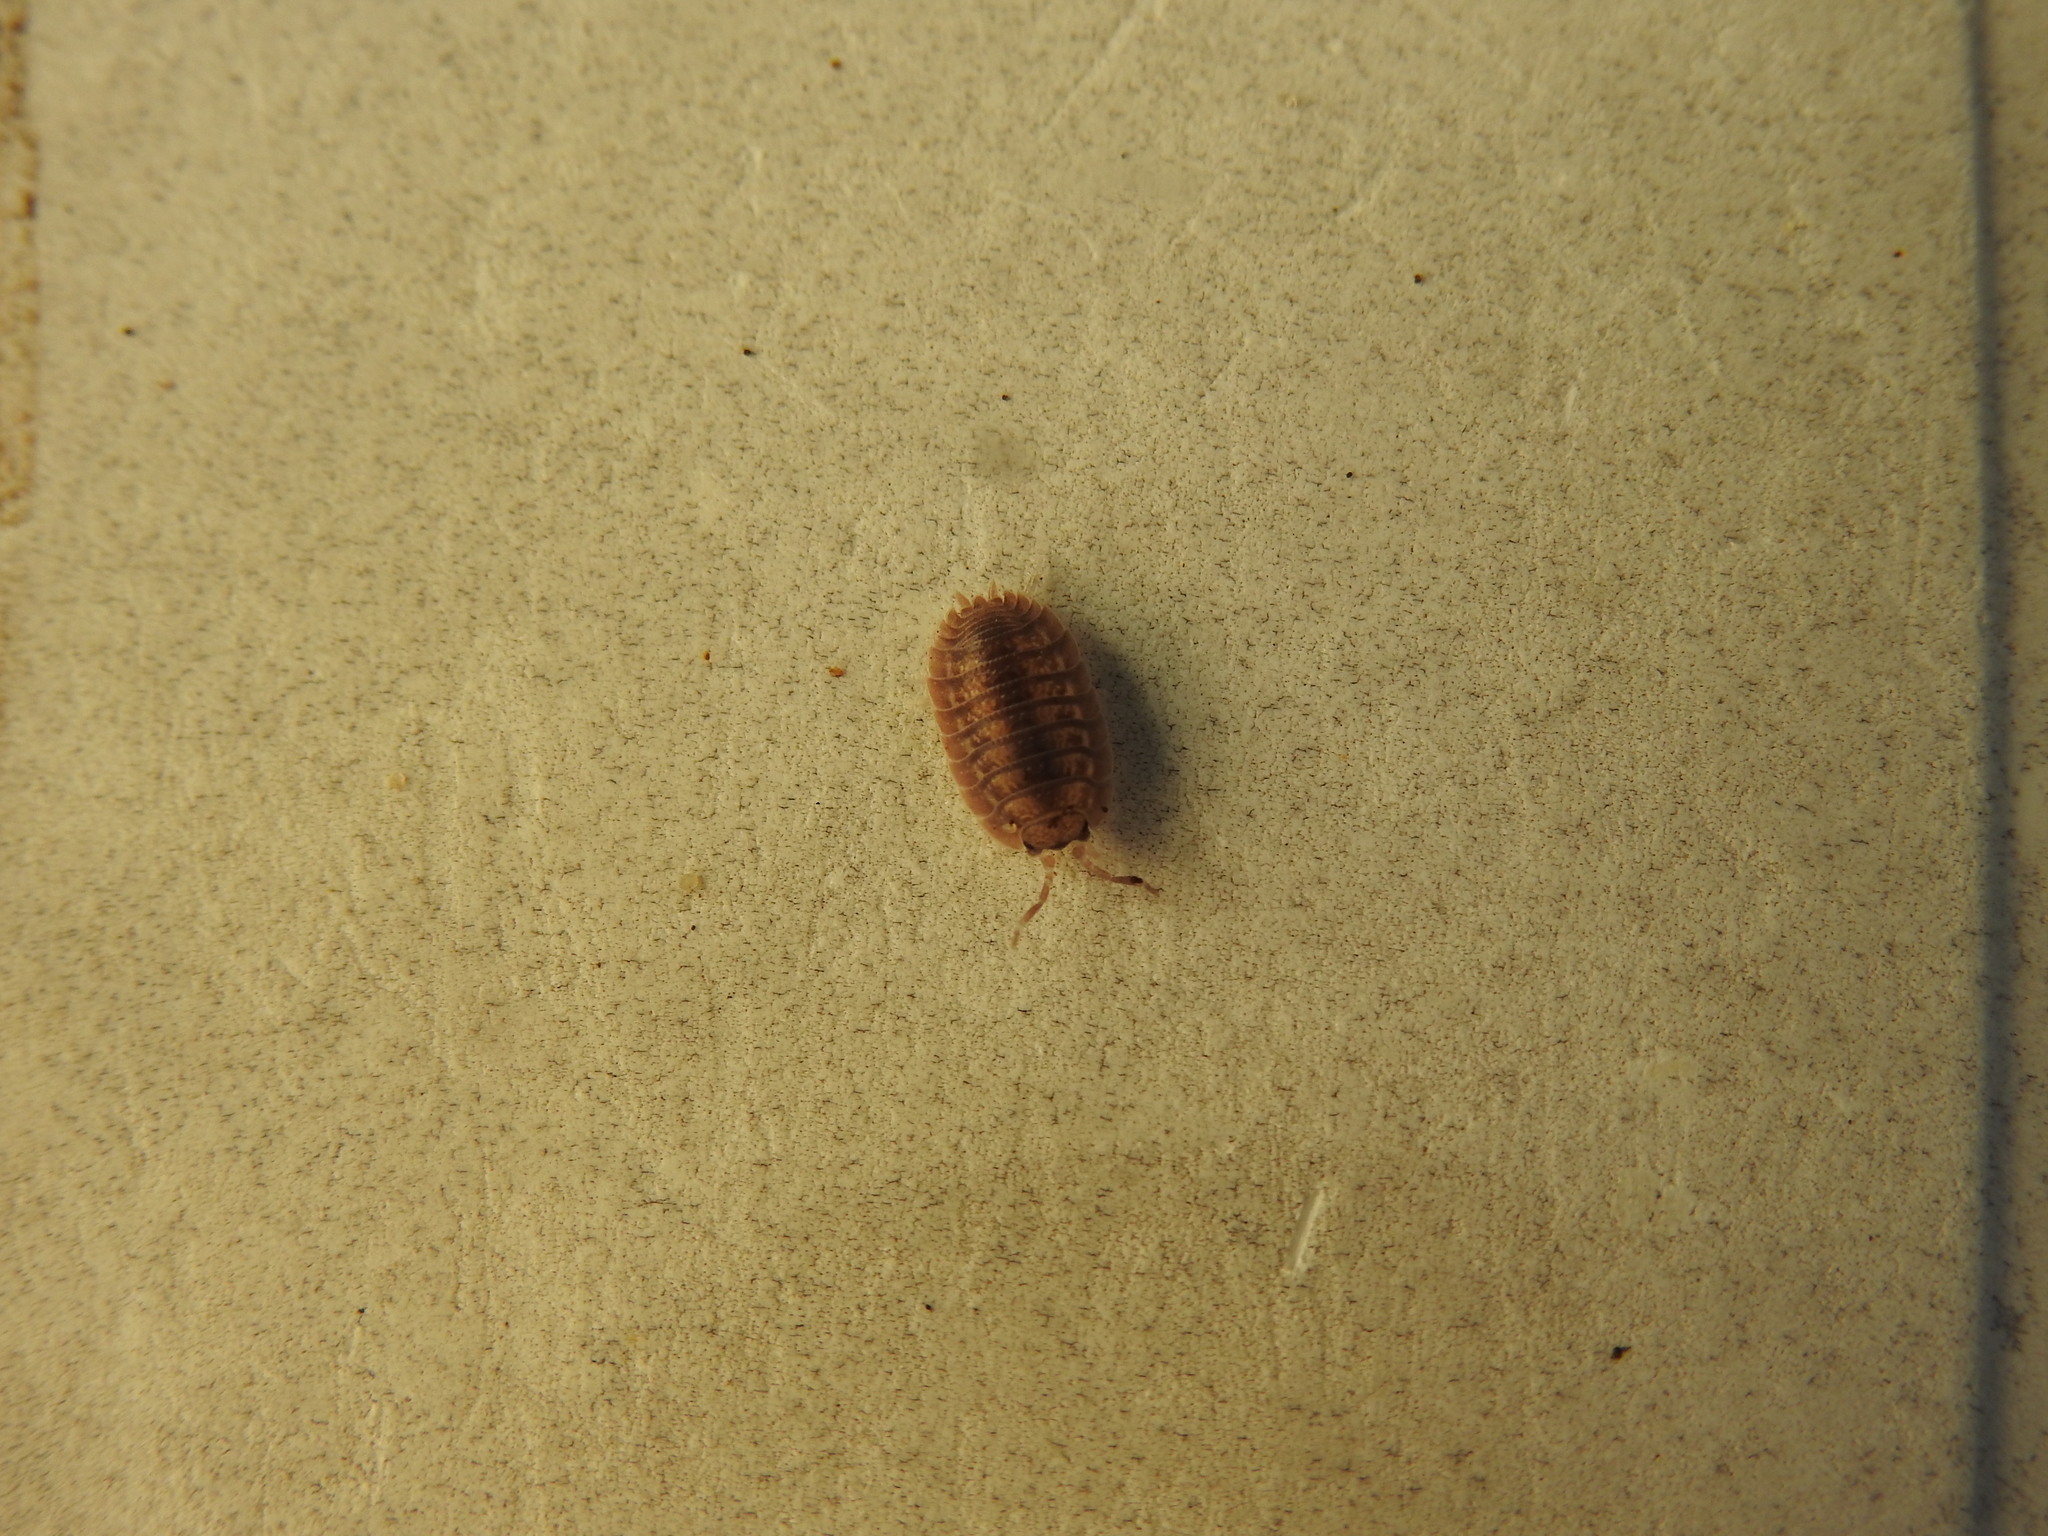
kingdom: Animalia
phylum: Arthropoda
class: Malacostraca
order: Isopoda
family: Porcellionidae
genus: Porcellio
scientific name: Porcellio dilatatus
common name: Isopod
